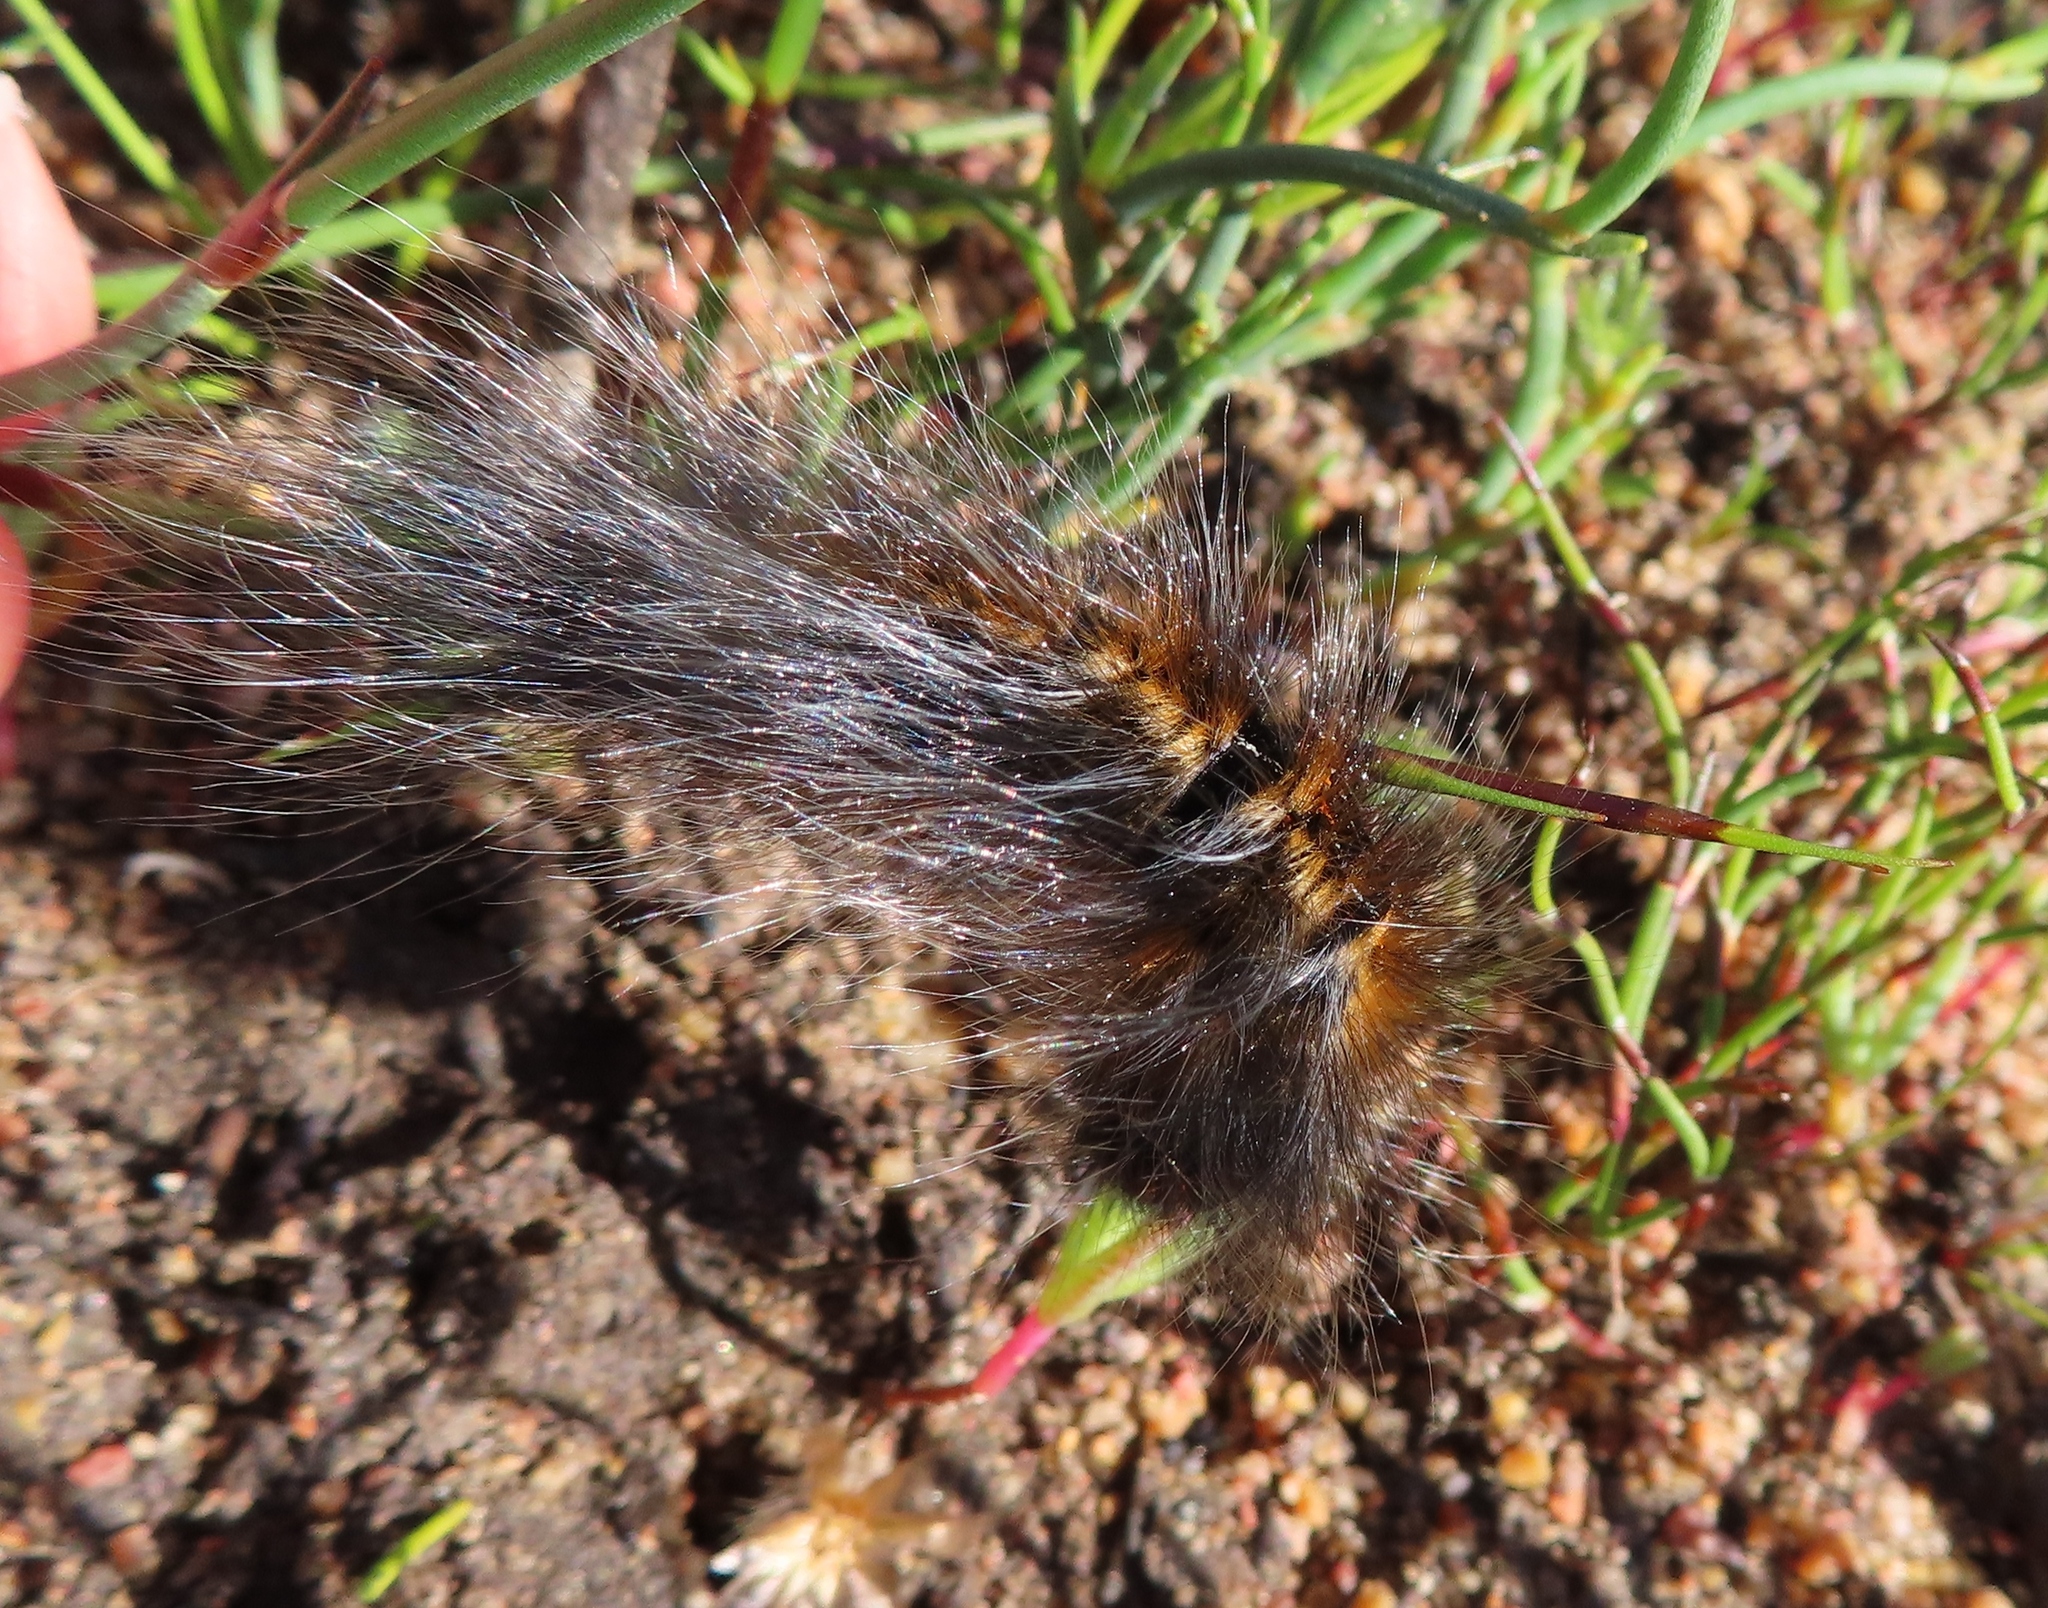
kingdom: Animalia
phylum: Arthropoda
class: Insecta
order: Lepidoptera
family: Lasiocampidae
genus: Mesocelis
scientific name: Mesocelis monticola
